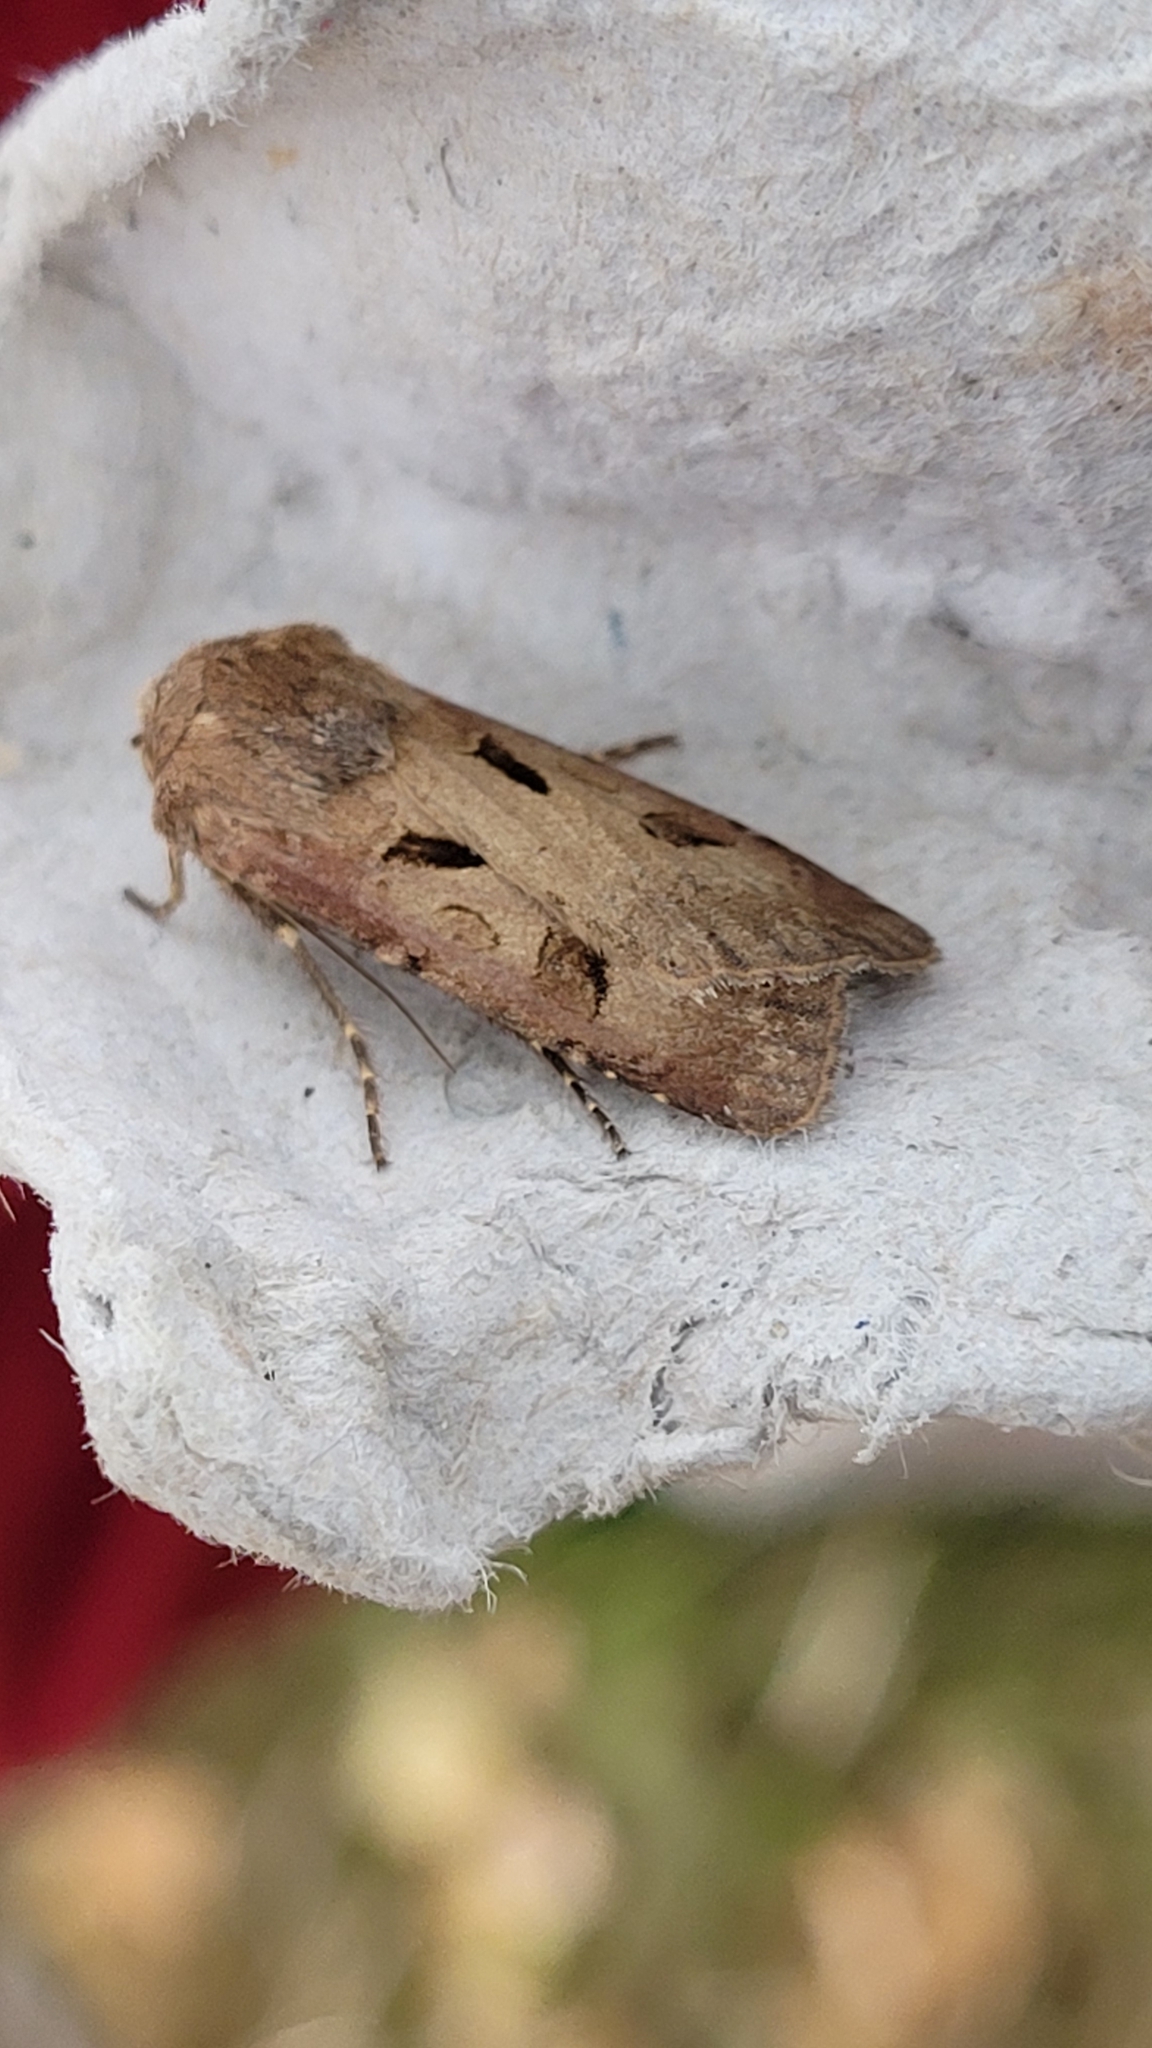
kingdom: Animalia
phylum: Arthropoda
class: Insecta
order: Lepidoptera
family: Noctuidae
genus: Agrotis
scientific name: Agrotis exclamationis
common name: Heart and dart
